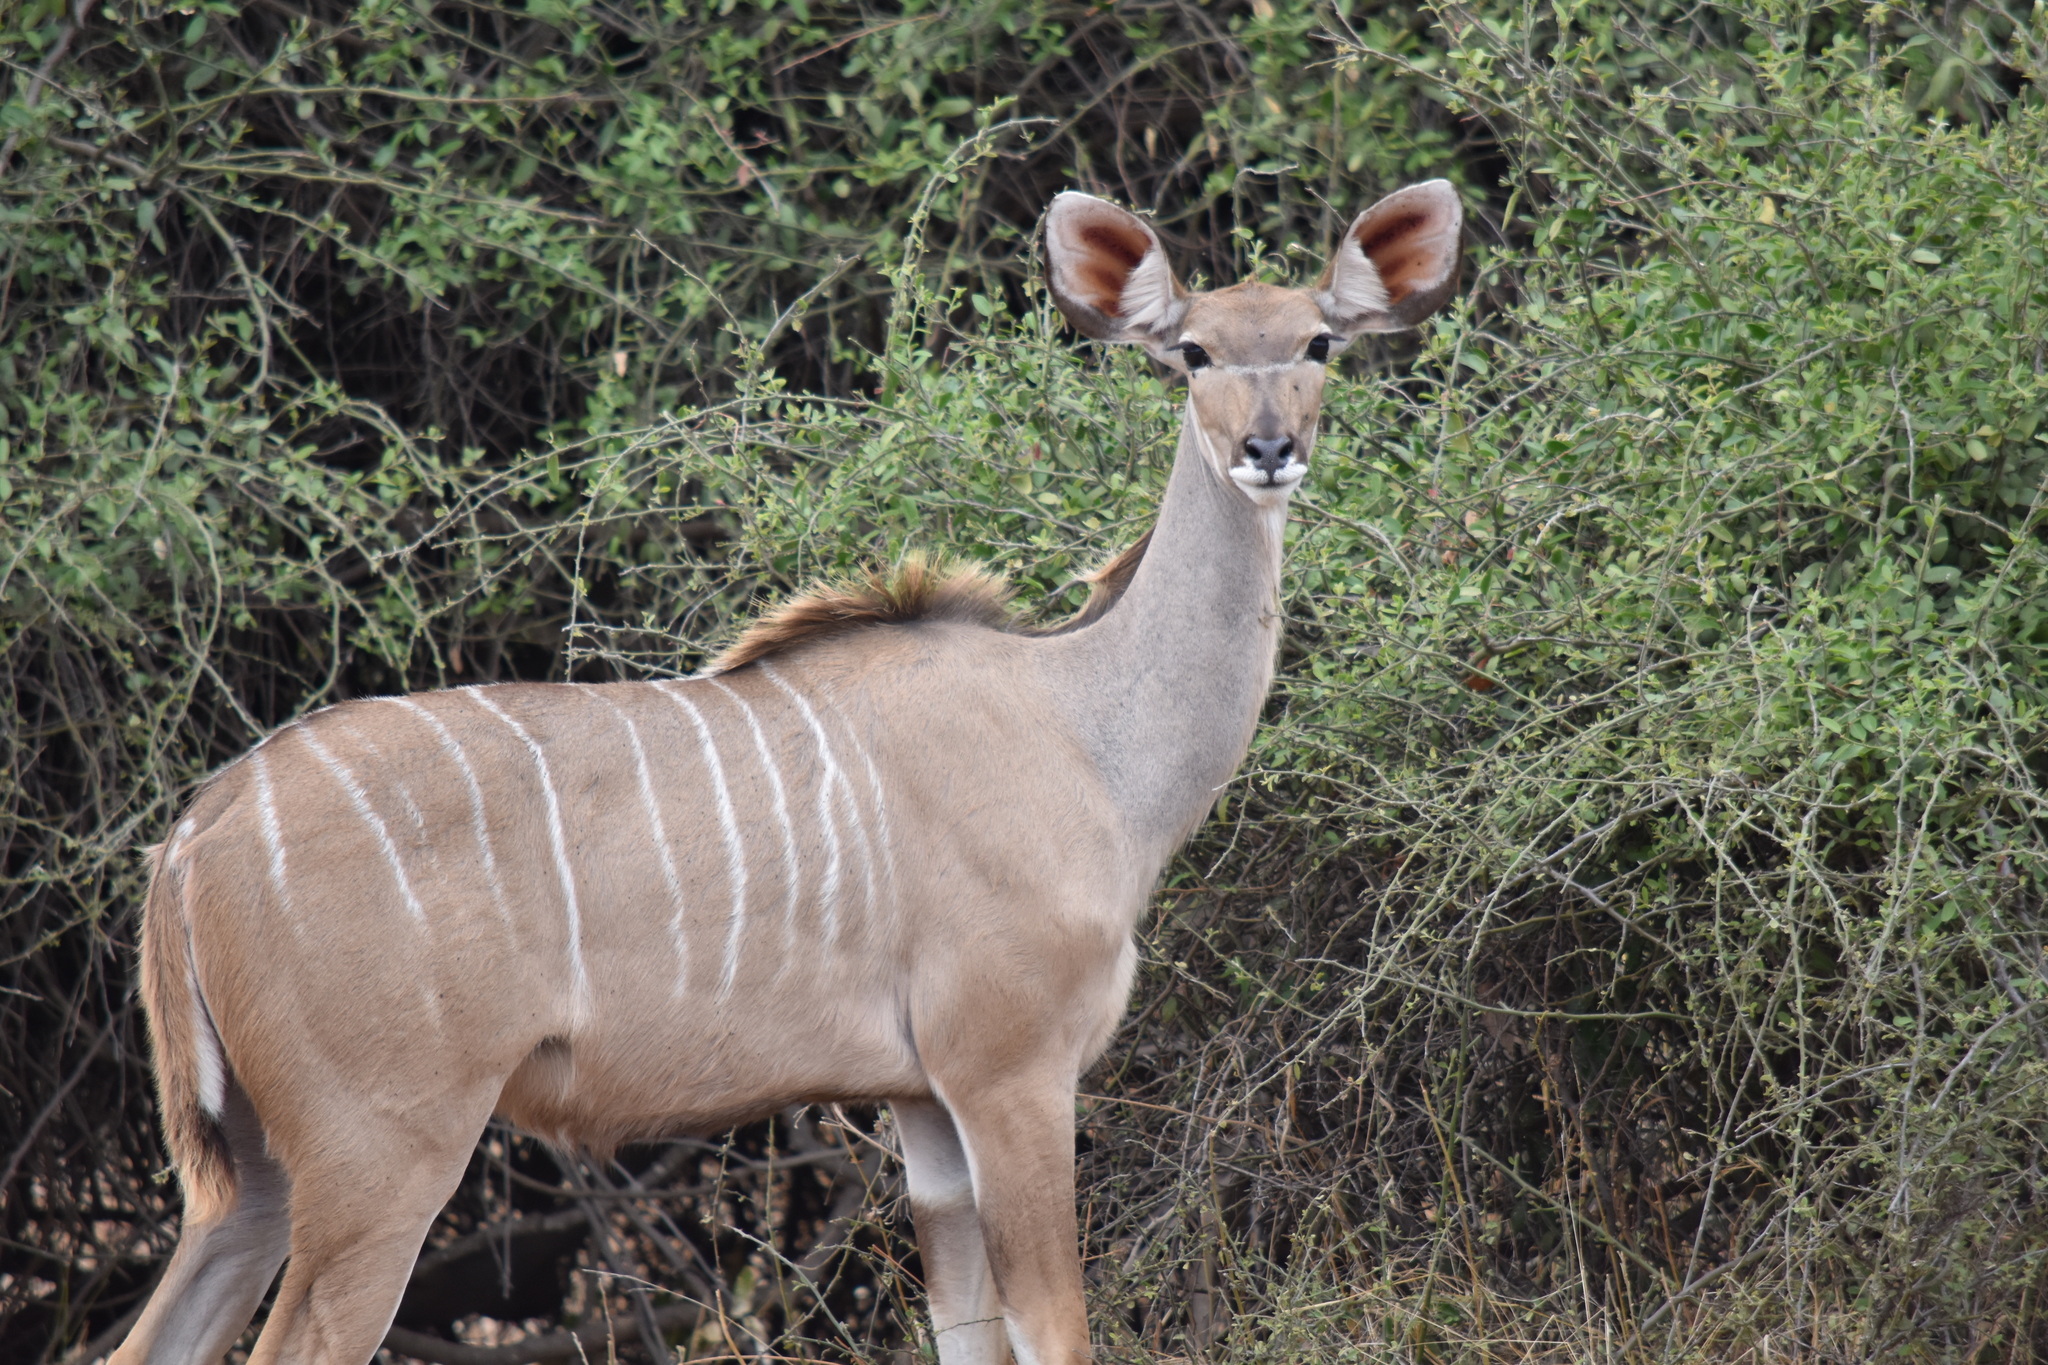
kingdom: Animalia
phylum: Chordata
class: Mammalia
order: Artiodactyla
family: Bovidae
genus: Tragelaphus
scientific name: Tragelaphus strepsiceros
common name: Greater kudu
